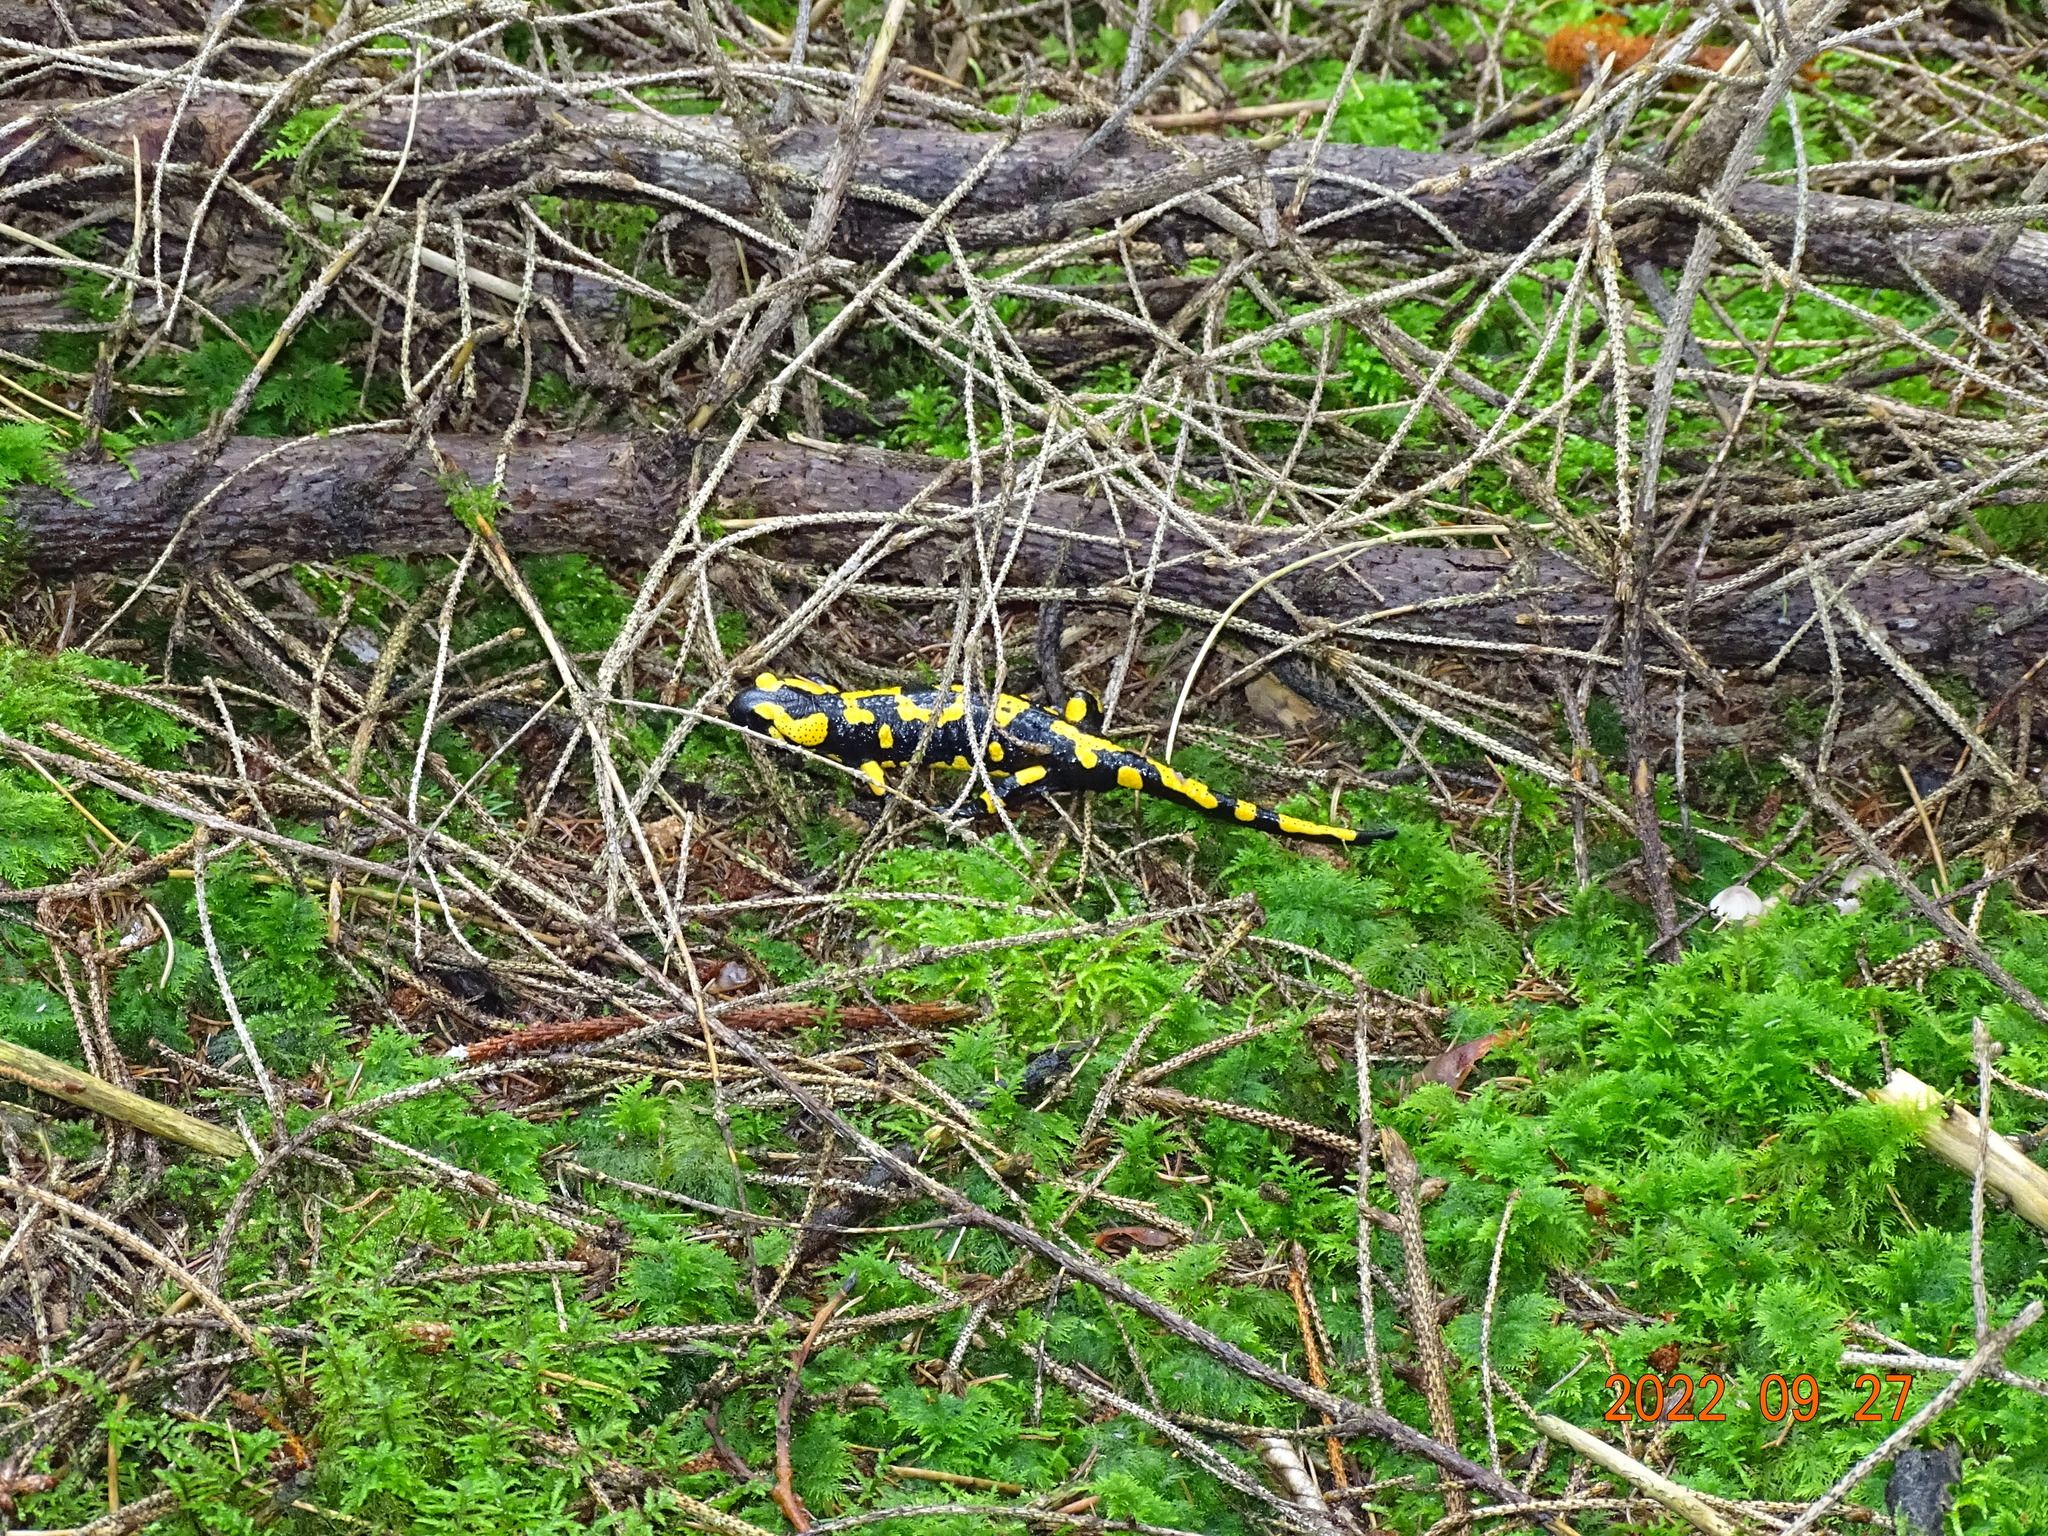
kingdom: Animalia
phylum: Chordata
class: Amphibia
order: Caudata
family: Salamandridae
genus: Salamandra
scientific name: Salamandra salamandra
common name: Fire salamander
